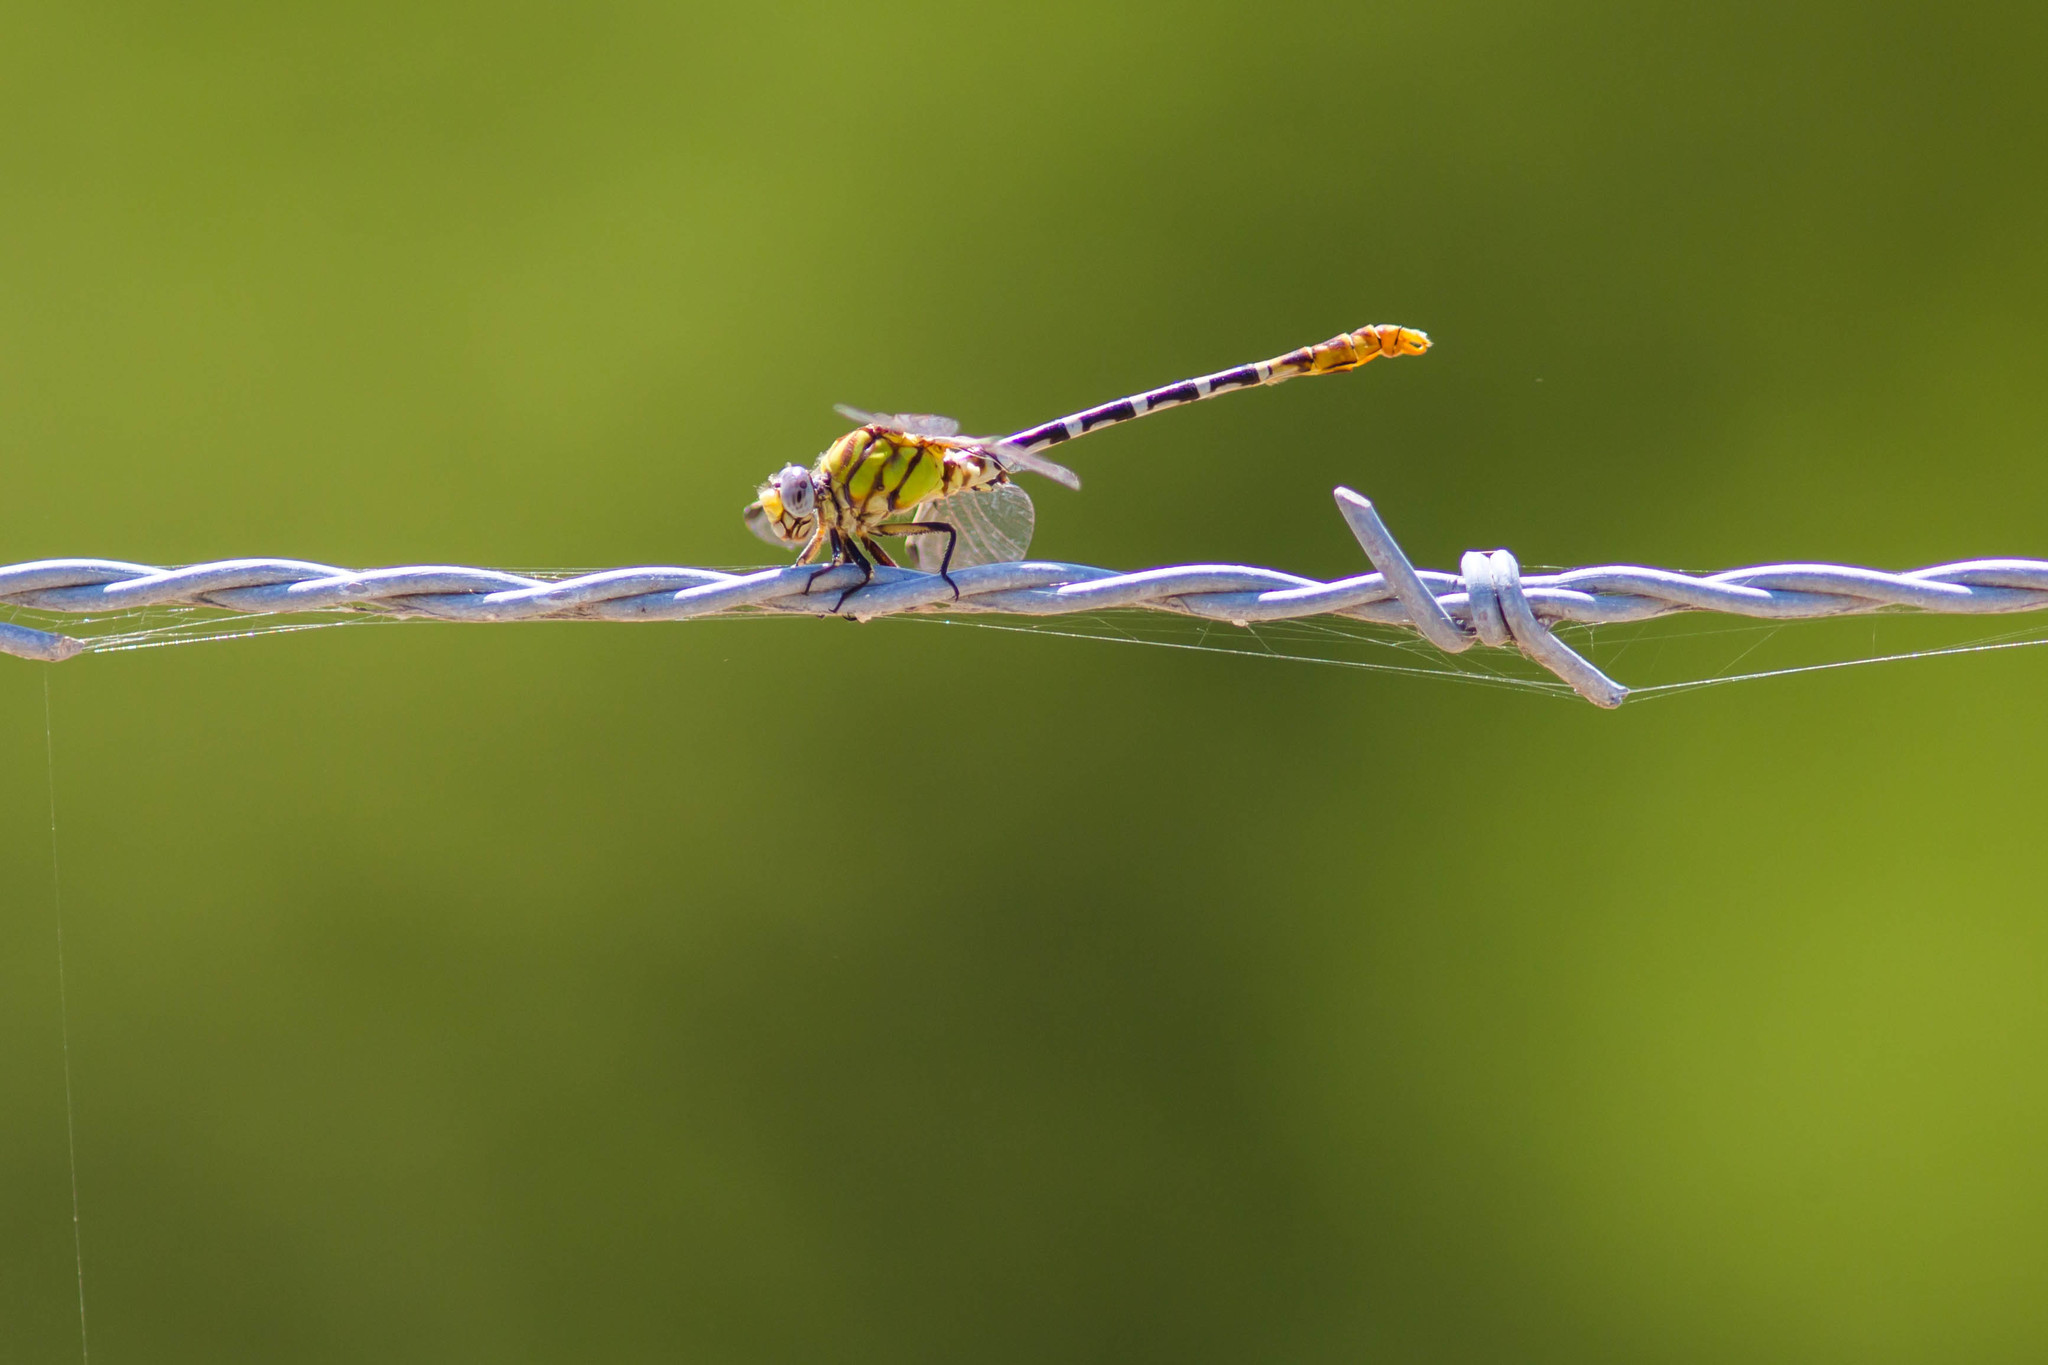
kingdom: Animalia
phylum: Arthropoda
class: Insecta
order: Odonata
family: Gomphidae
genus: Erpetogomphus
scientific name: Erpetogomphus designatus
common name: Eastern ringtail
